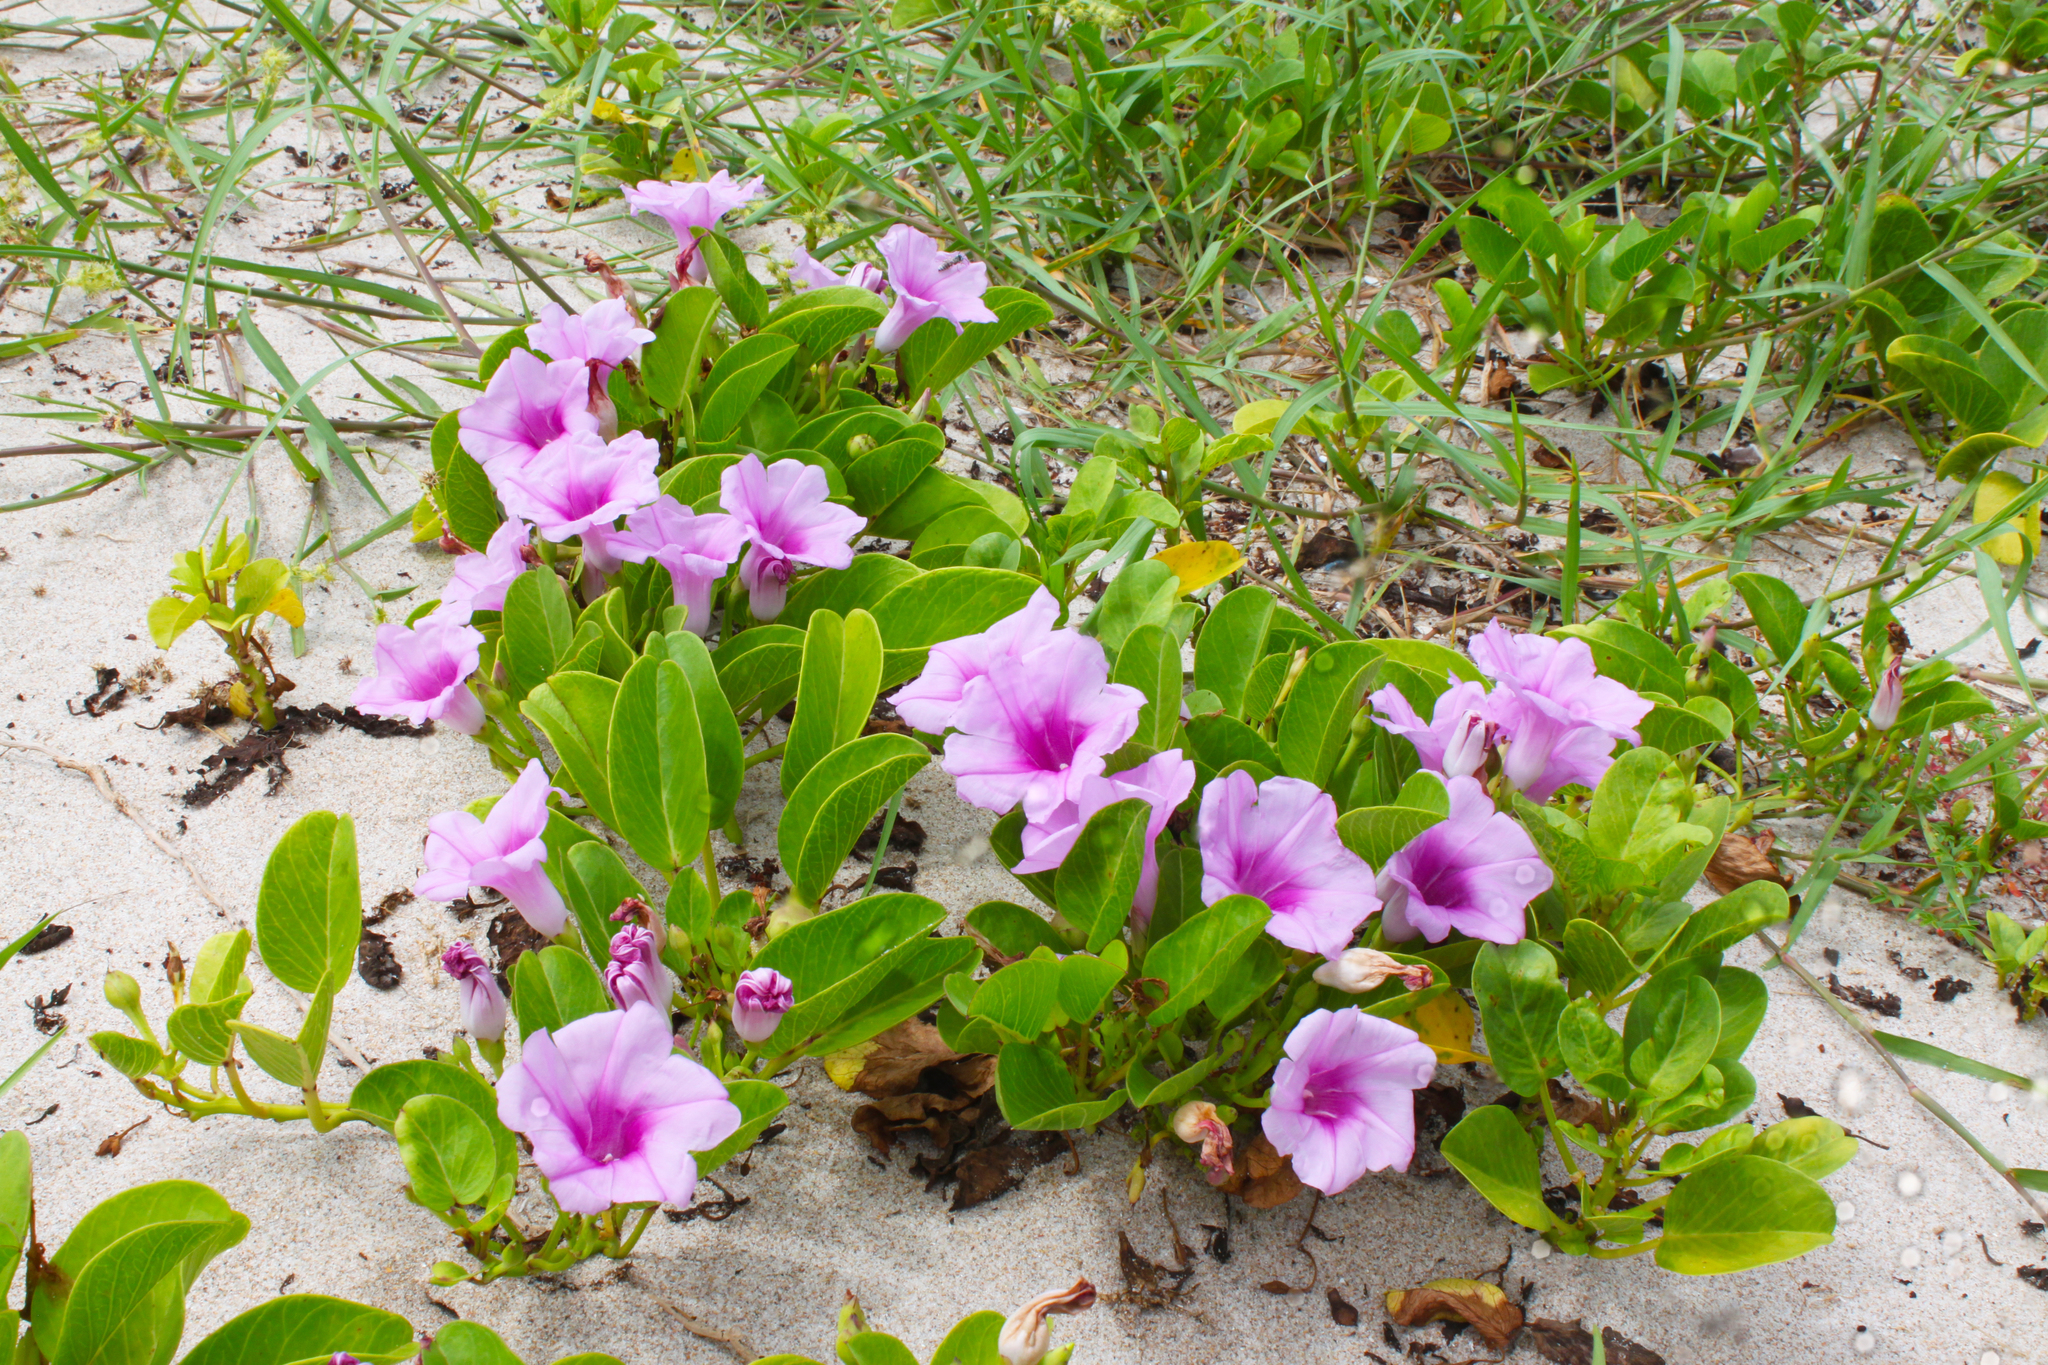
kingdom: Plantae
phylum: Tracheophyta
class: Magnoliopsida
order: Solanales
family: Convolvulaceae
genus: Ipomoea
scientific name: Ipomoea pes-caprae
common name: Beach morning glory
